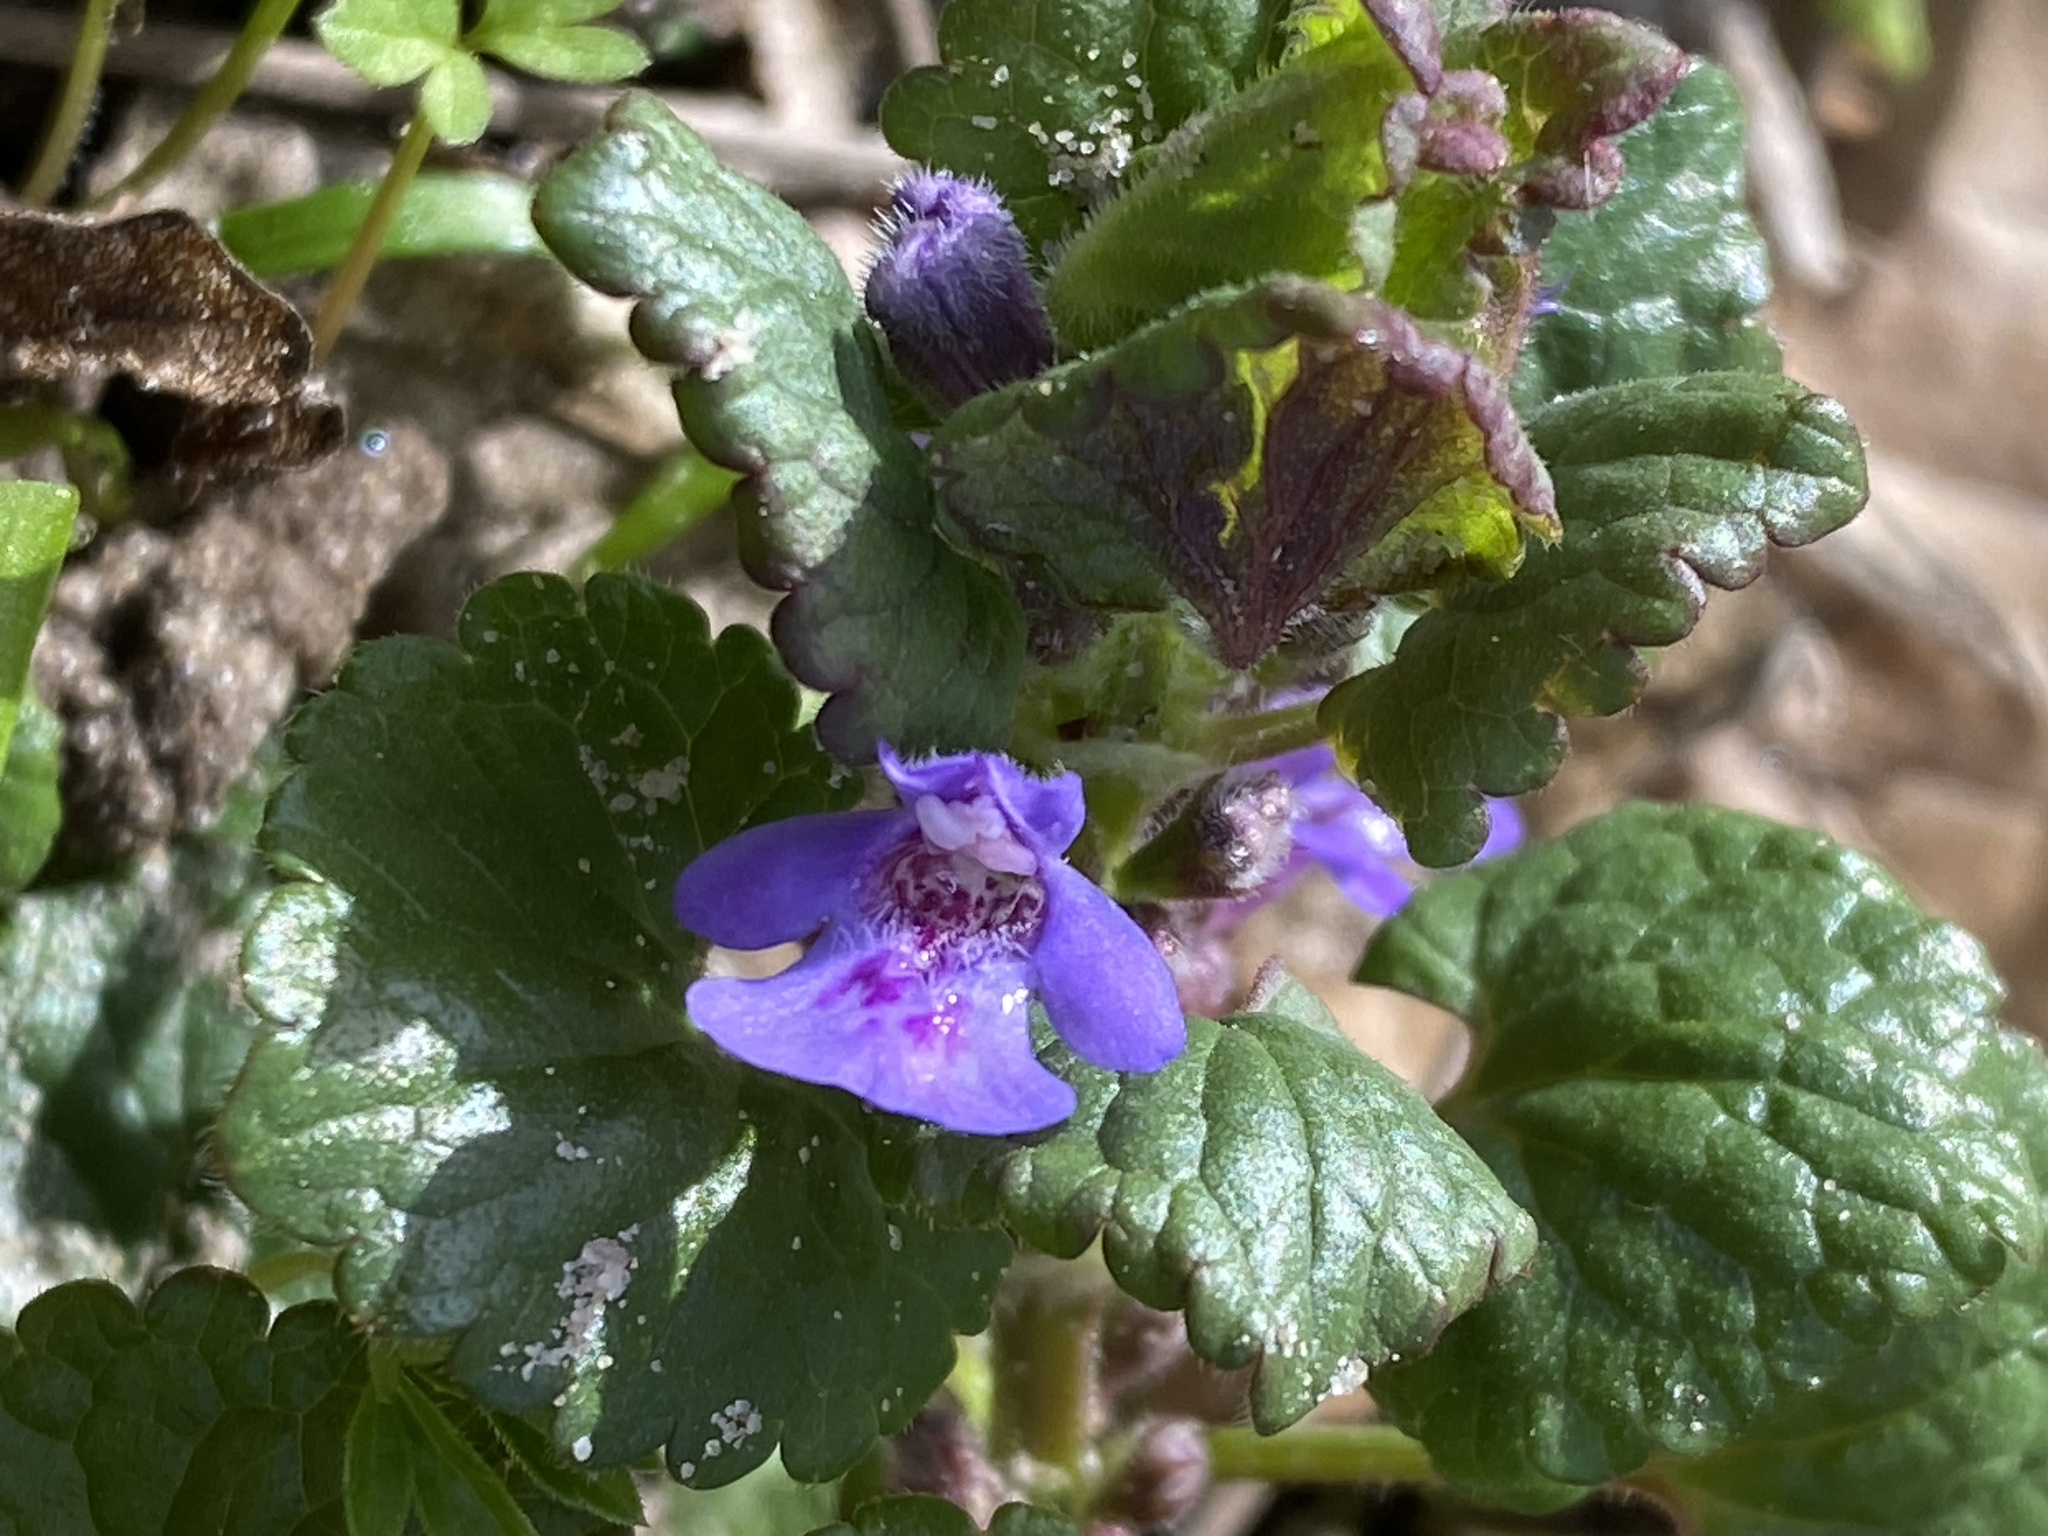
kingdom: Plantae
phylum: Tracheophyta
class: Magnoliopsida
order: Lamiales
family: Lamiaceae
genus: Glechoma
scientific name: Glechoma hederacea
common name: Ground ivy
